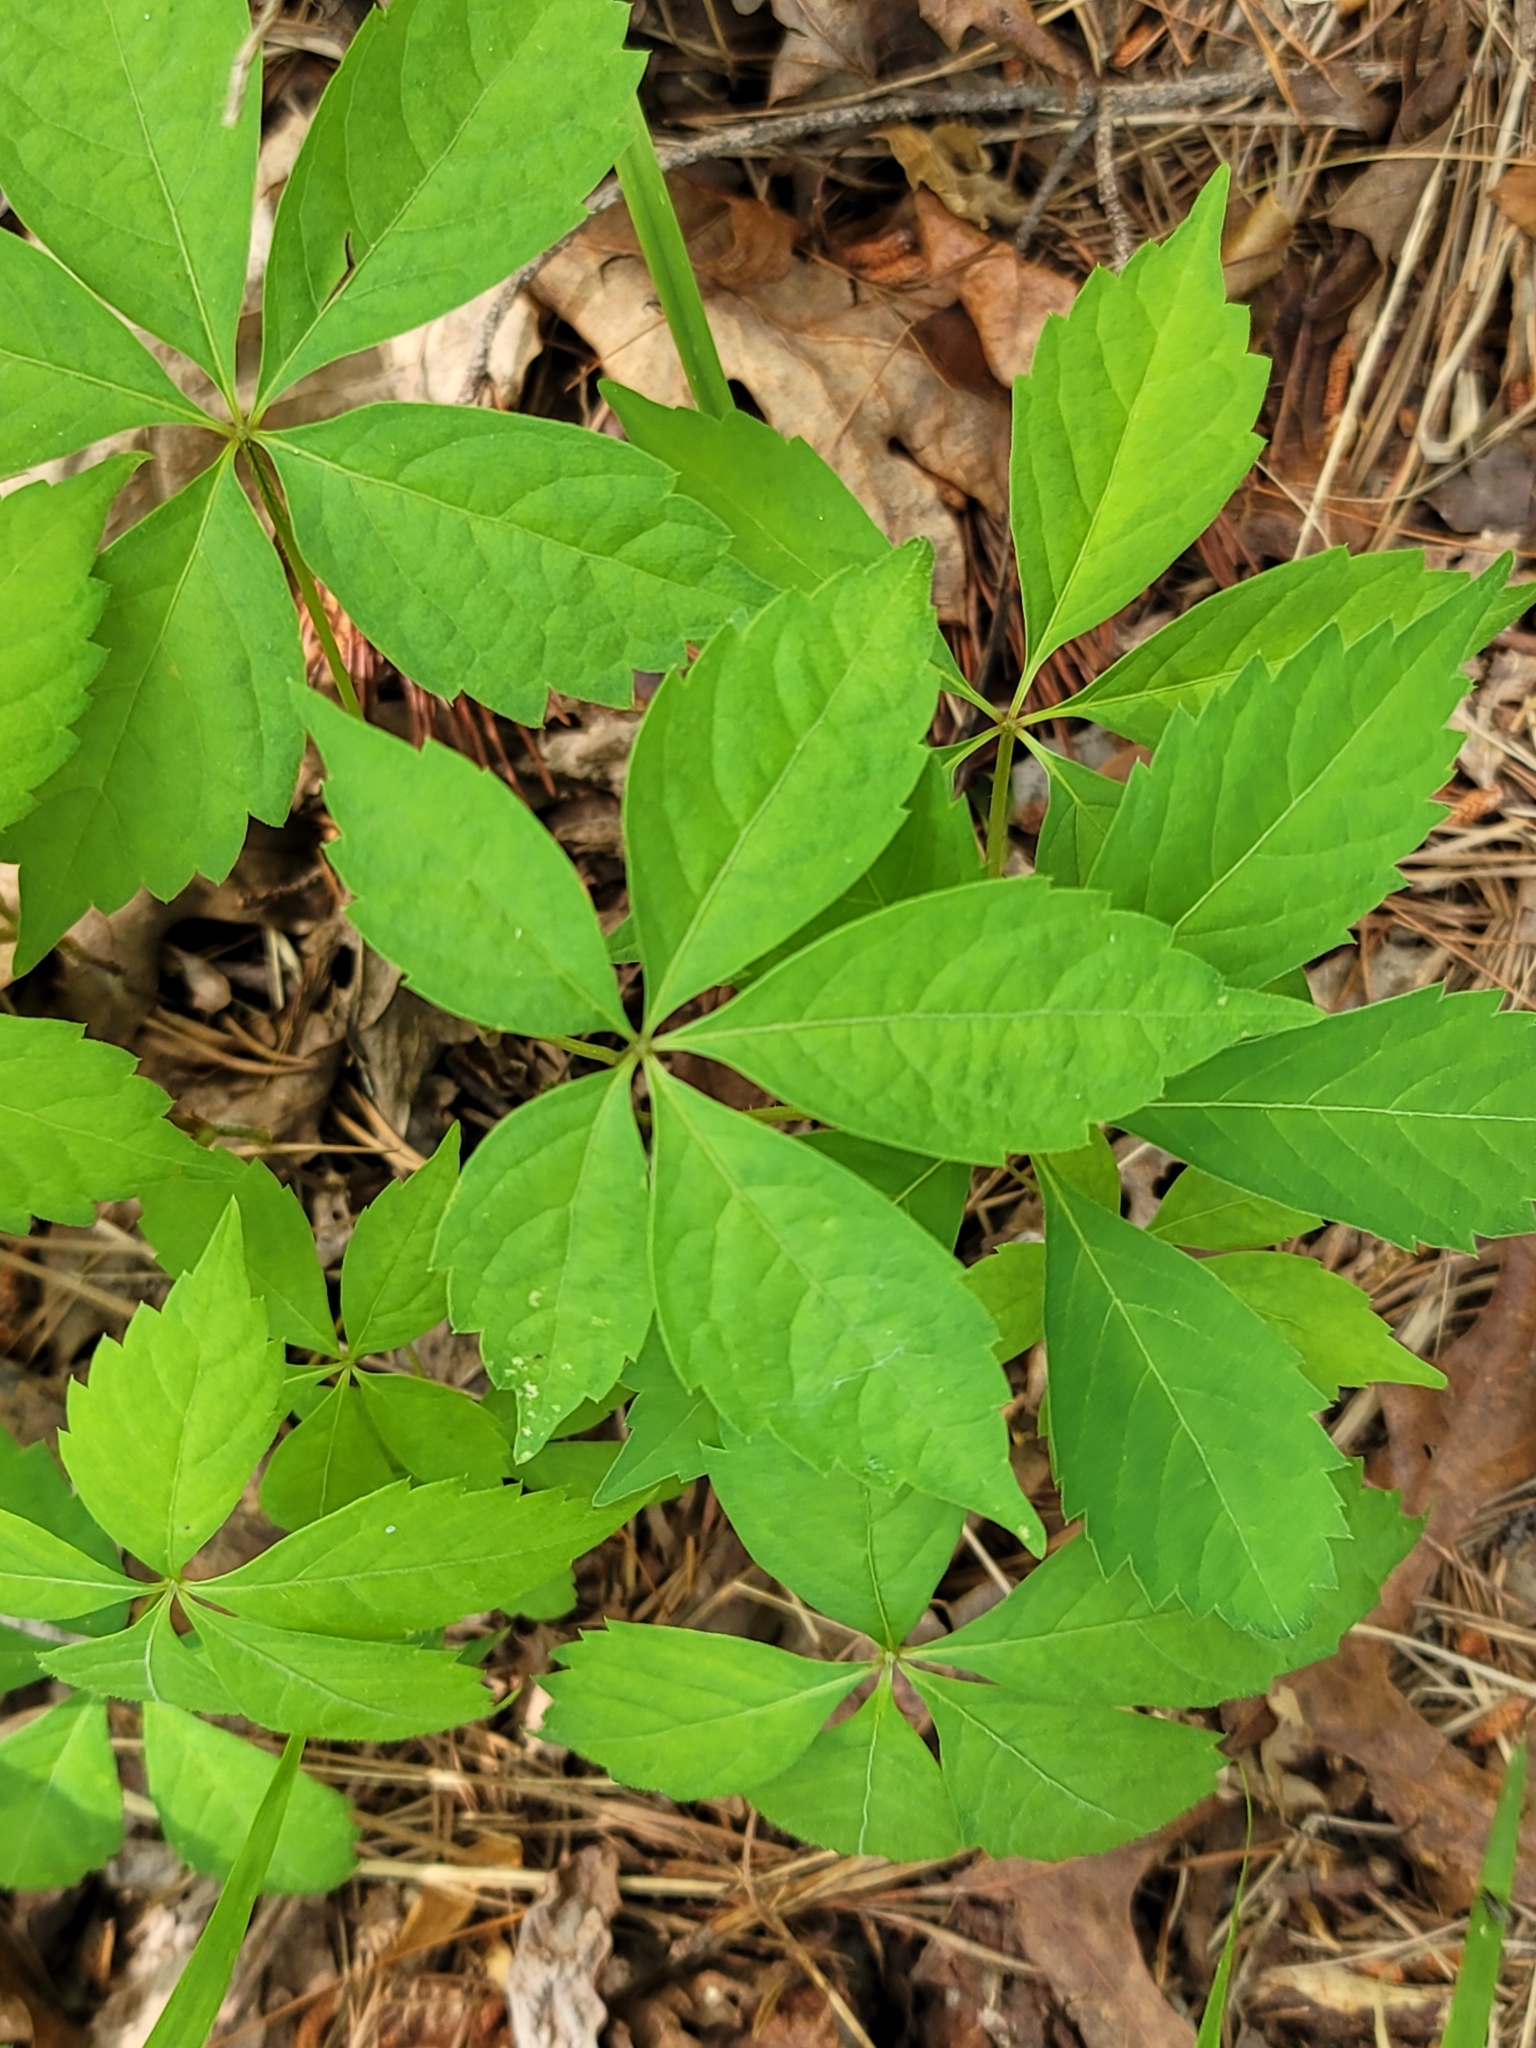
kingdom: Plantae
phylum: Tracheophyta
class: Magnoliopsida
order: Vitales
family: Vitaceae
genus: Parthenocissus
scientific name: Parthenocissus quinquefolia
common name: Virginia-creeper
